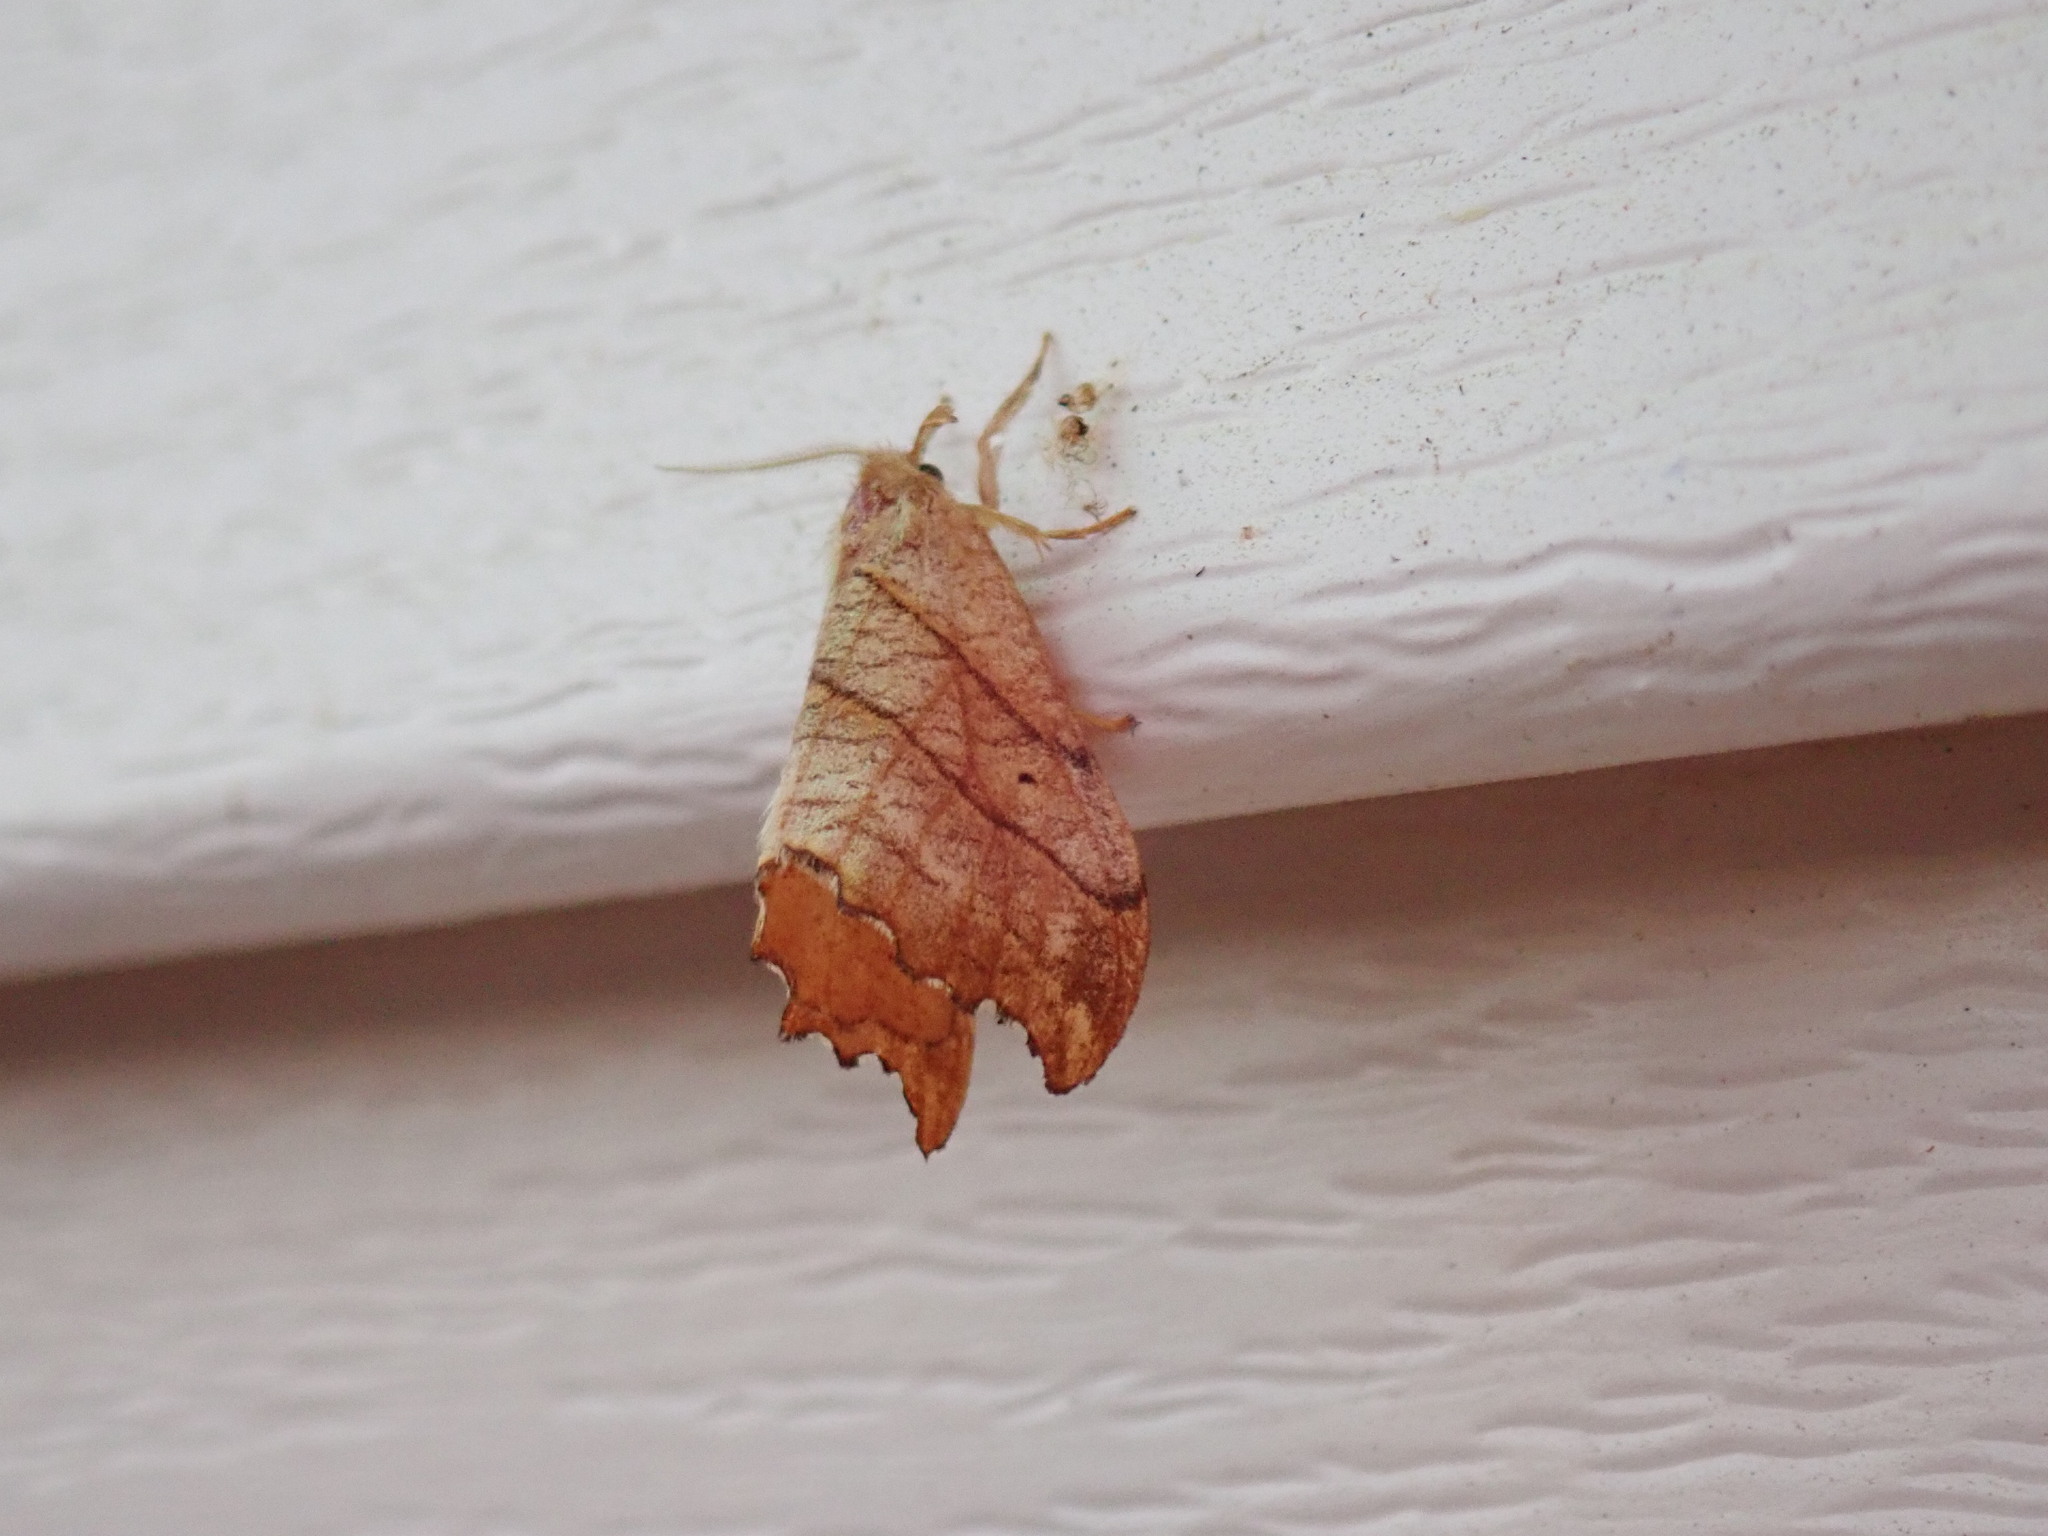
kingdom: Animalia
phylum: Arthropoda
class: Insecta
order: Lepidoptera
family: Drepanidae
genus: Falcaria
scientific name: Falcaria bilineata
